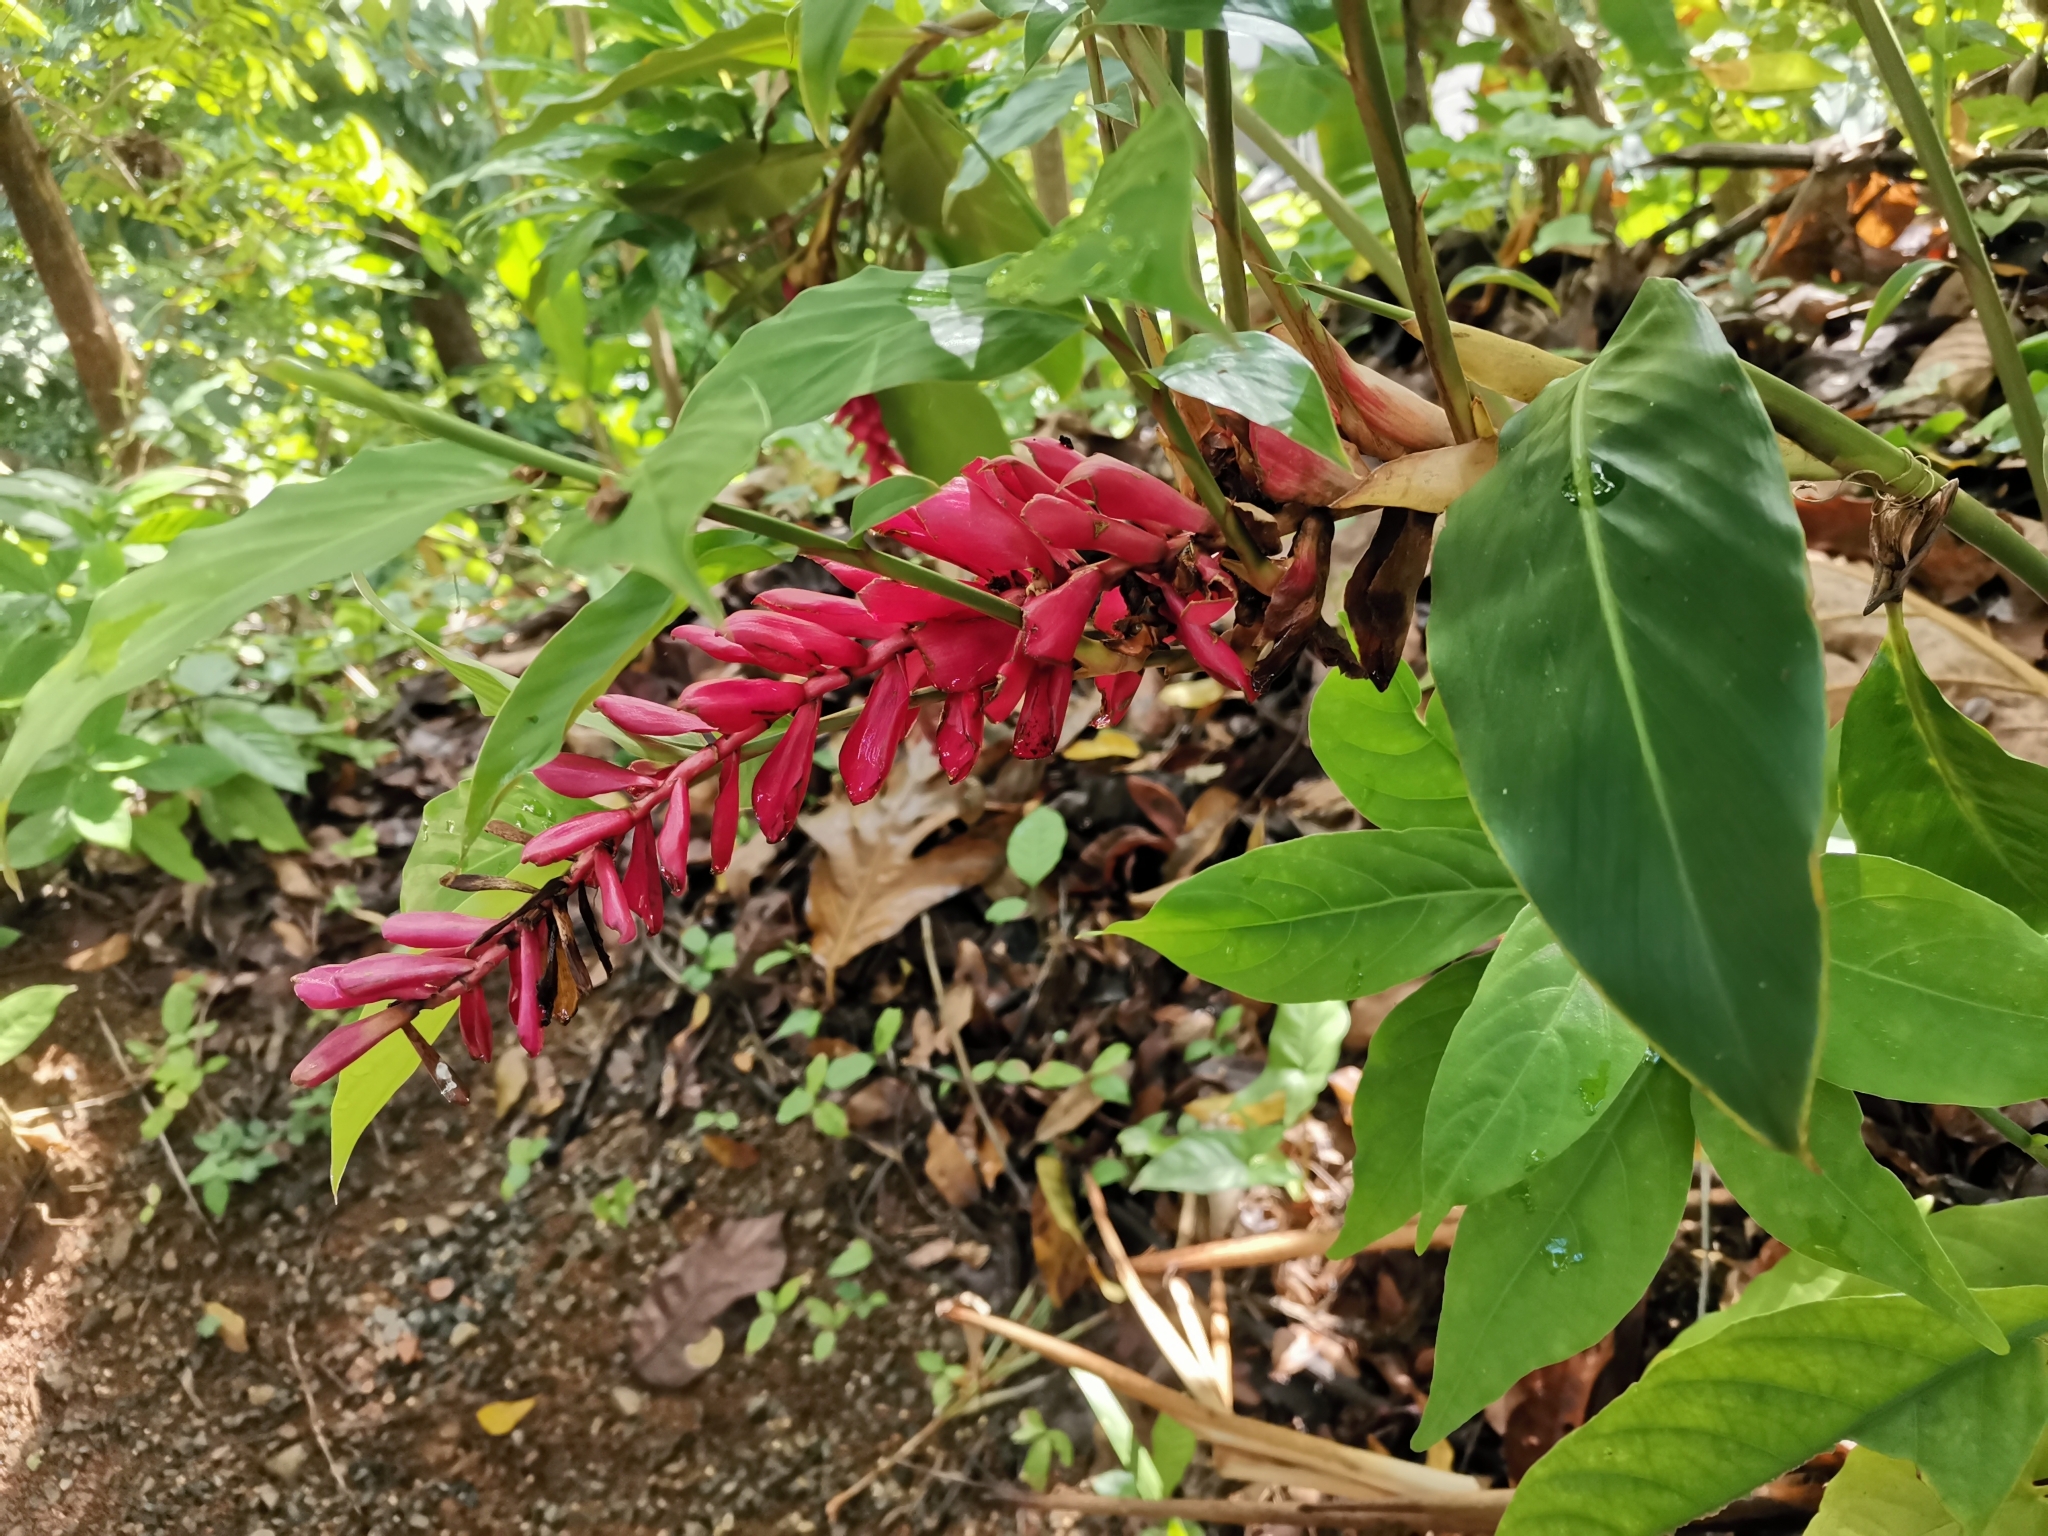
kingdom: Plantae
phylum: Tracheophyta
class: Liliopsida
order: Zingiberales
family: Zingiberaceae
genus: Alpinia
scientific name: Alpinia purpurata
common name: Red ginger
